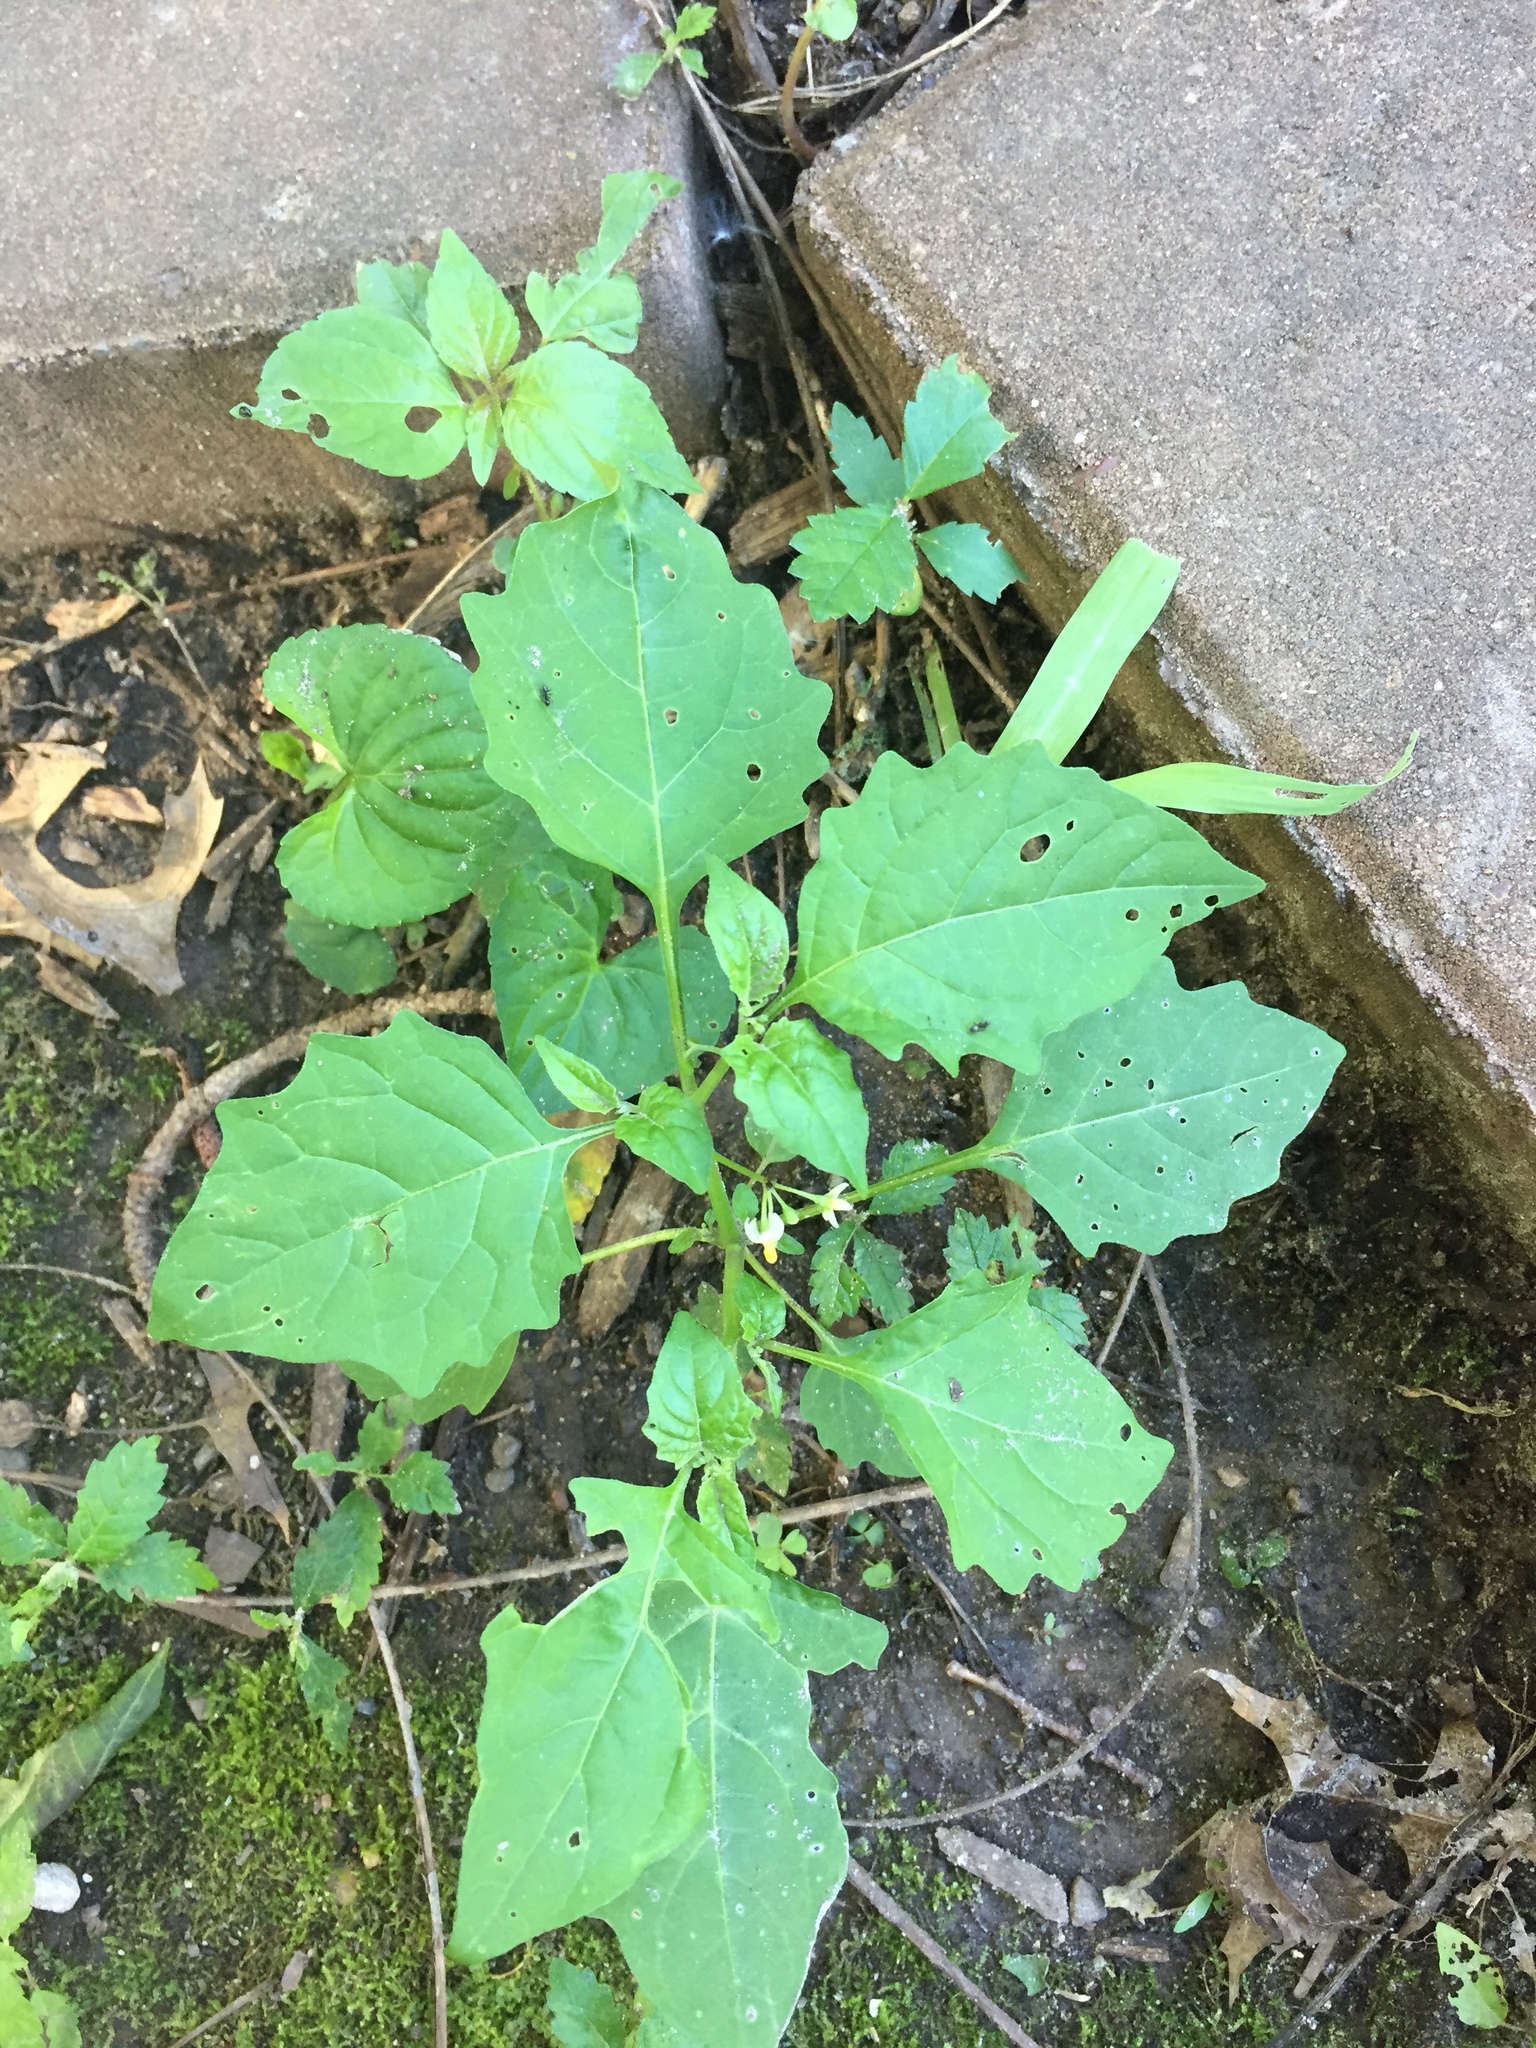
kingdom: Plantae
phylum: Tracheophyta
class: Magnoliopsida
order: Solanales
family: Solanaceae
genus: Solanum
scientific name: Solanum emulans
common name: Eastern black nightshade
